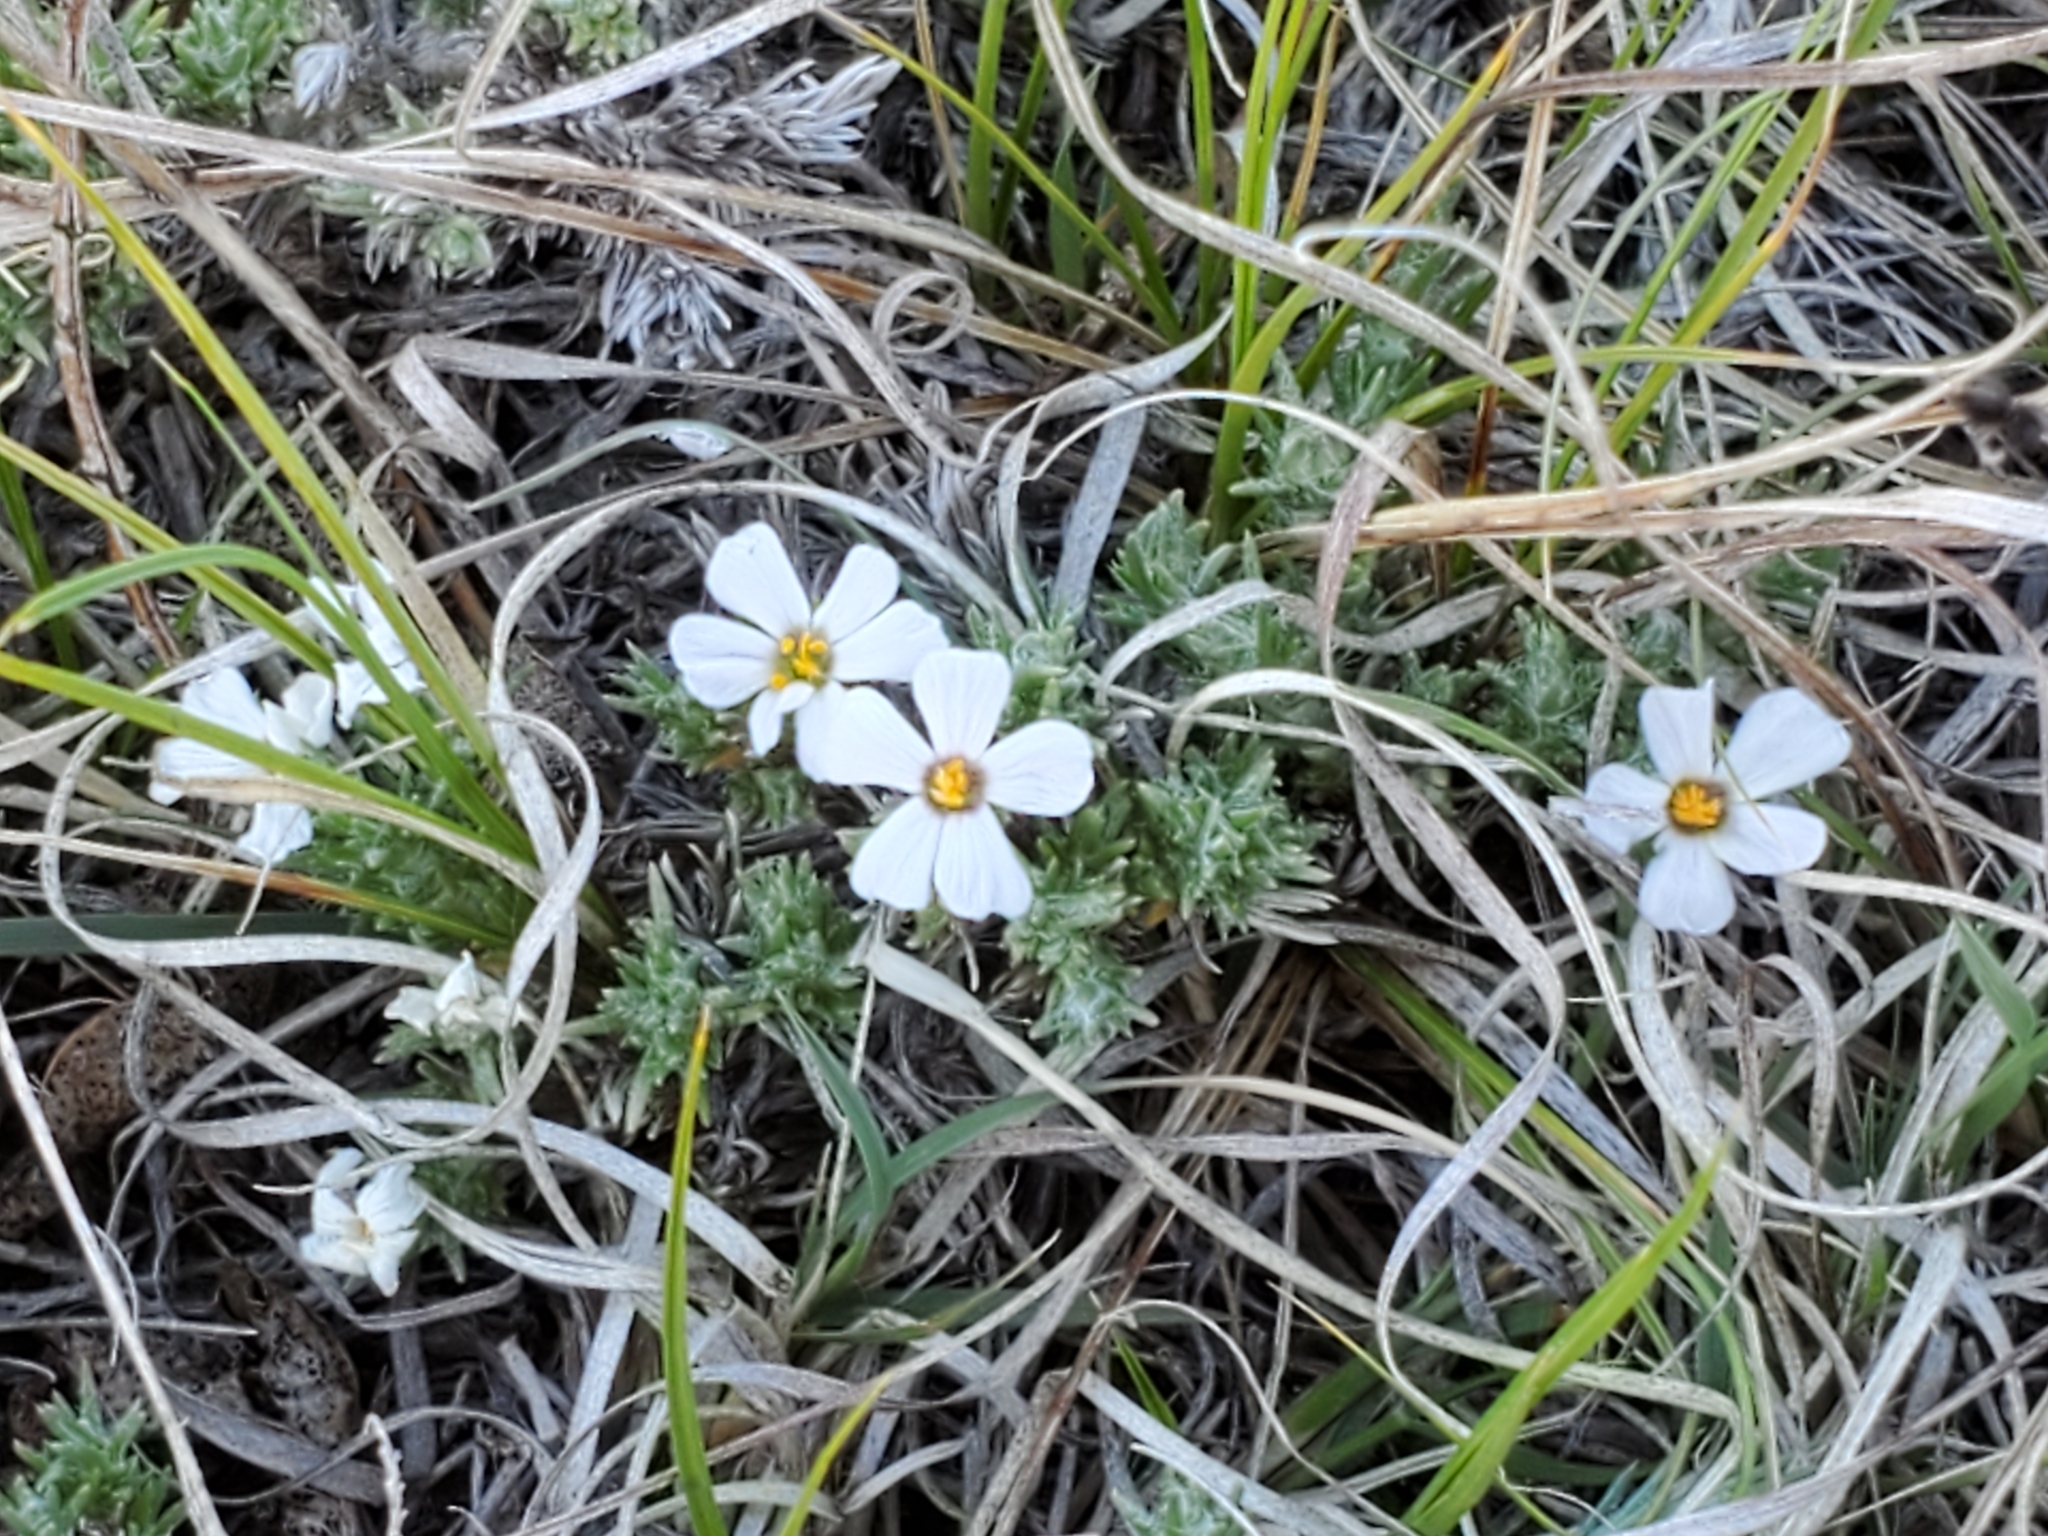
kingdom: Plantae
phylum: Tracheophyta
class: Magnoliopsida
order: Ericales
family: Polemoniaceae
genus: Phlox
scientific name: Phlox hoodii
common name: Moss phlox
